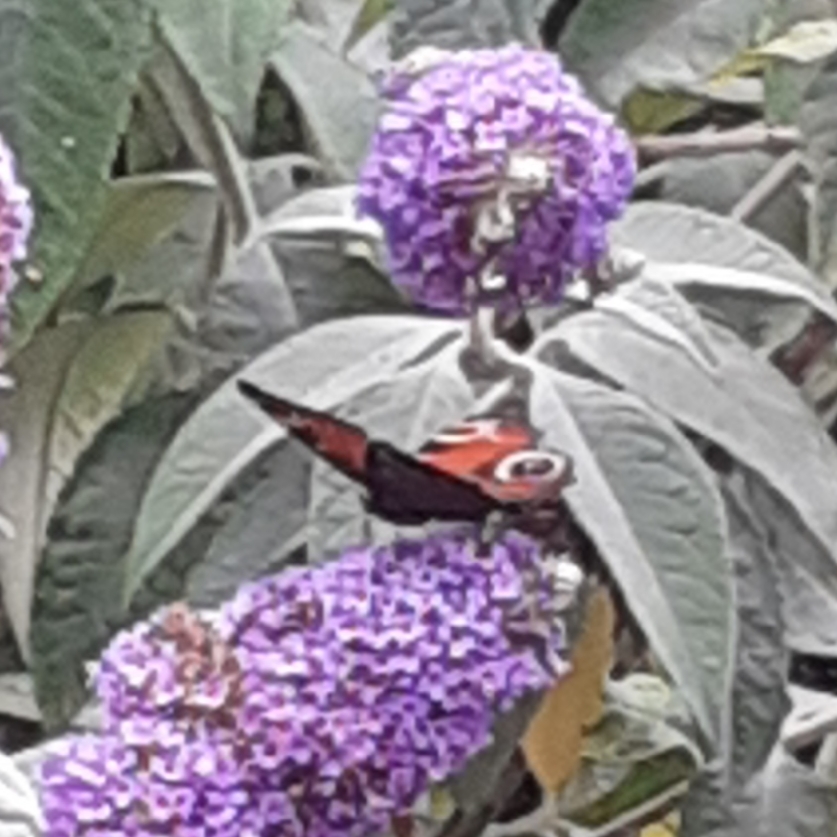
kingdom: Animalia
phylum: Arthropoda
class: Insecta
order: Lepidoptera
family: Nymphalidae
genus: Aglais
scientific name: Aglais io
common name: Peacock
